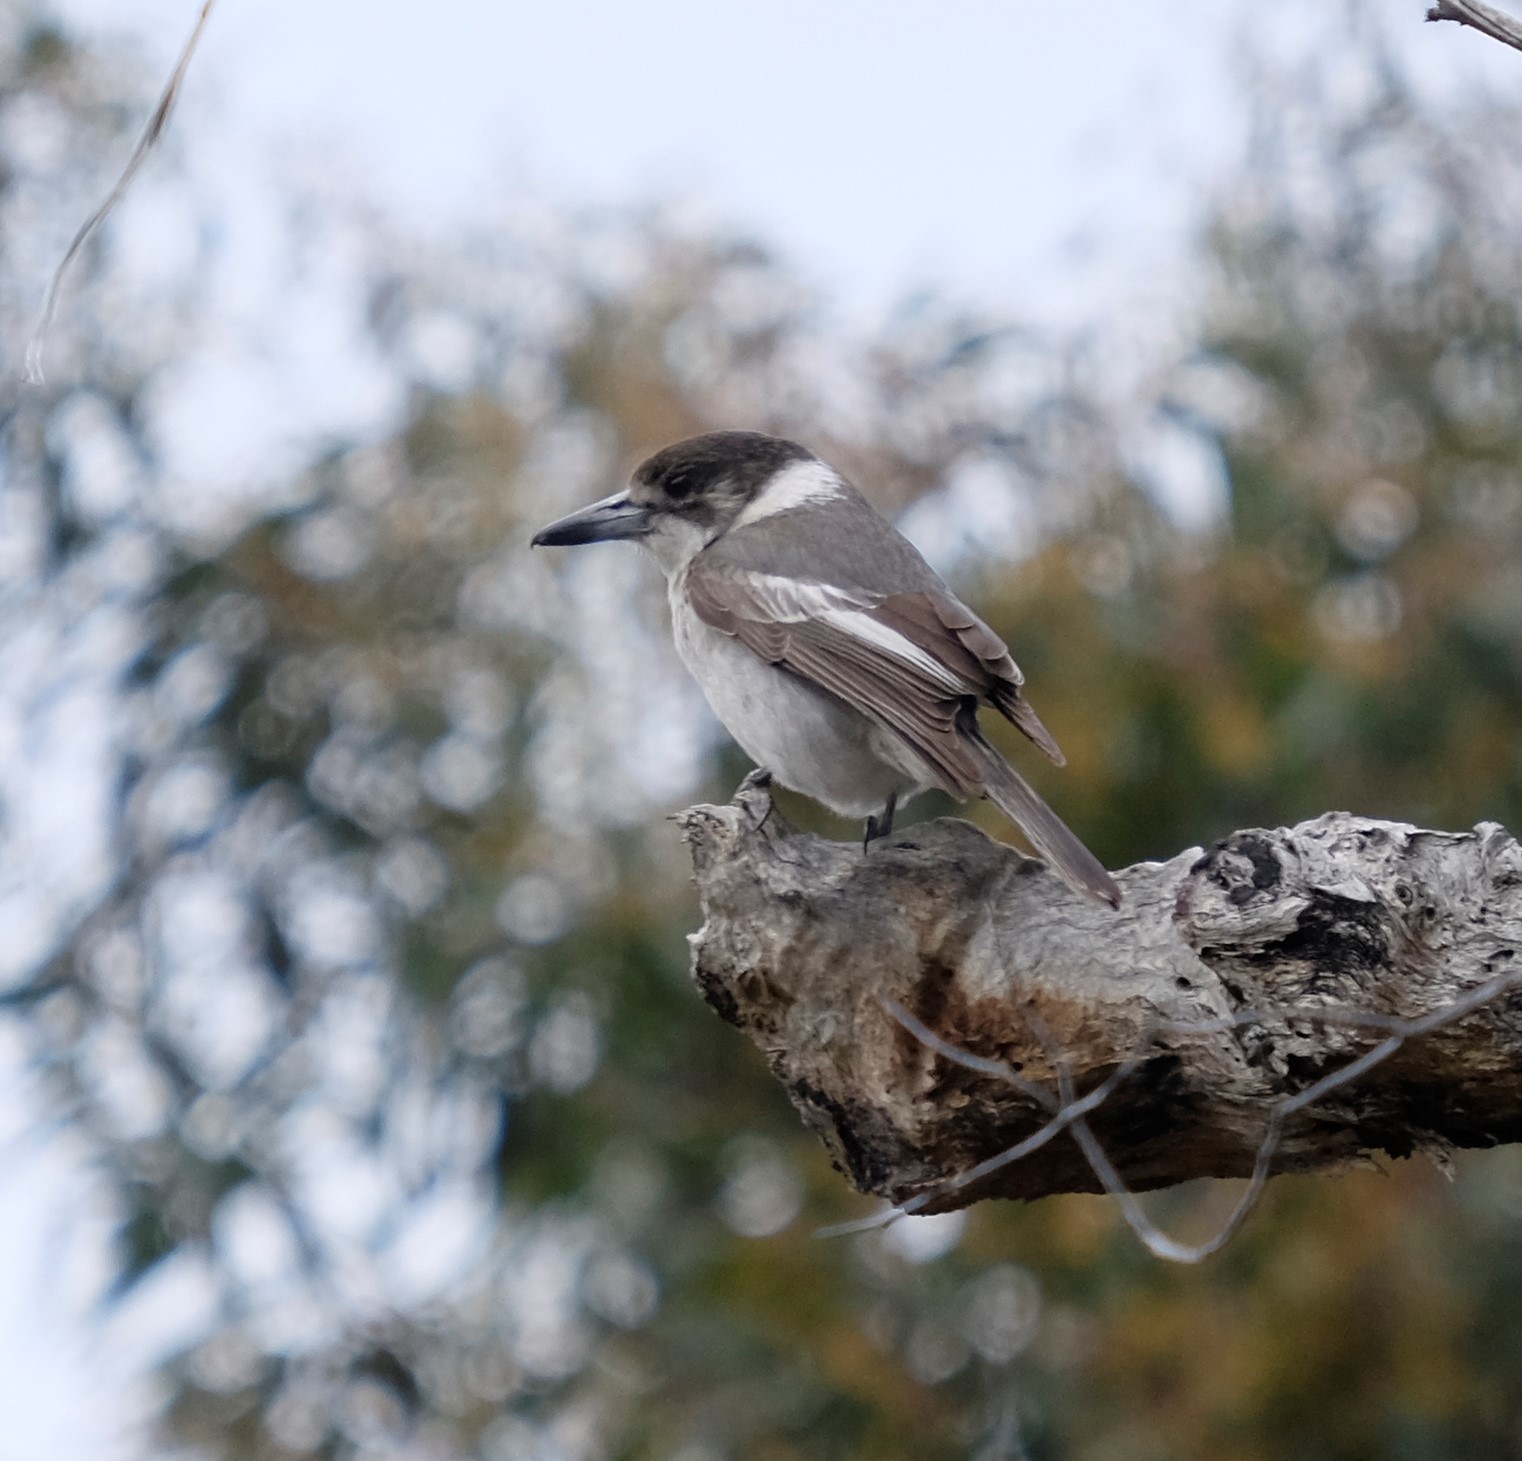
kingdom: Animalia
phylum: Chordata
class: Aves
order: Passeriformes
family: Cracticidae
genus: Cracticus
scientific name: Cracticus torquatus
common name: Grey butcherbird
